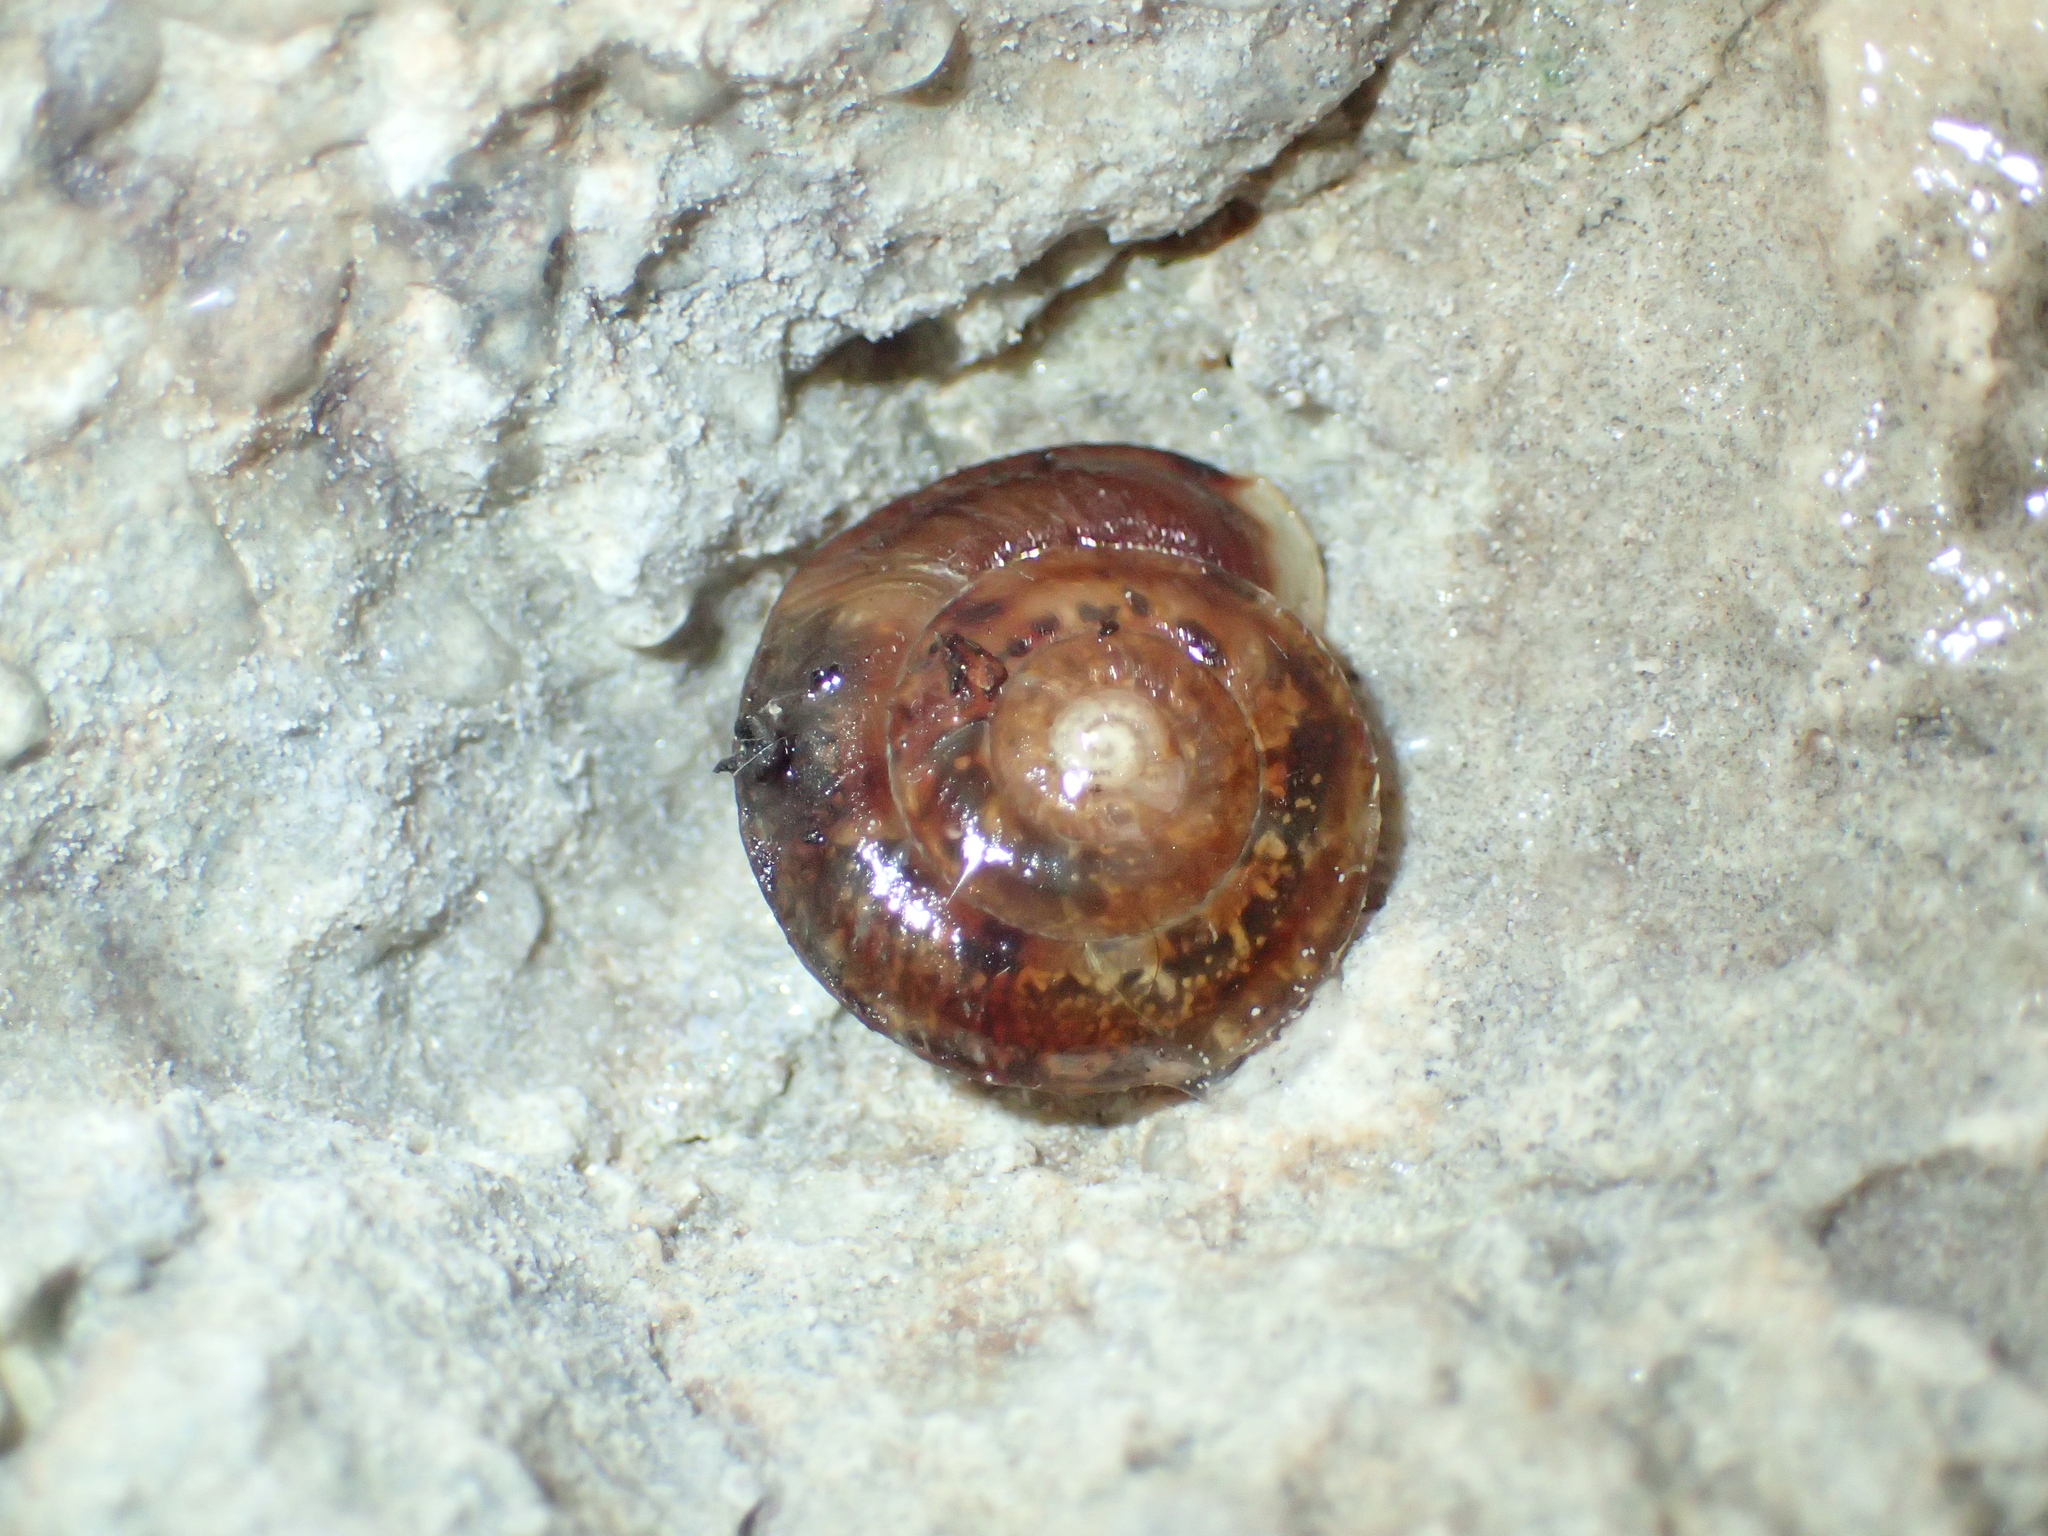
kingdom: Animalia
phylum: Mollusca
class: Gastropoda
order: Stylommatophora
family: Helicidae
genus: Helicigona
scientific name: Helicigona lapicida
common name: Lapidary snail
